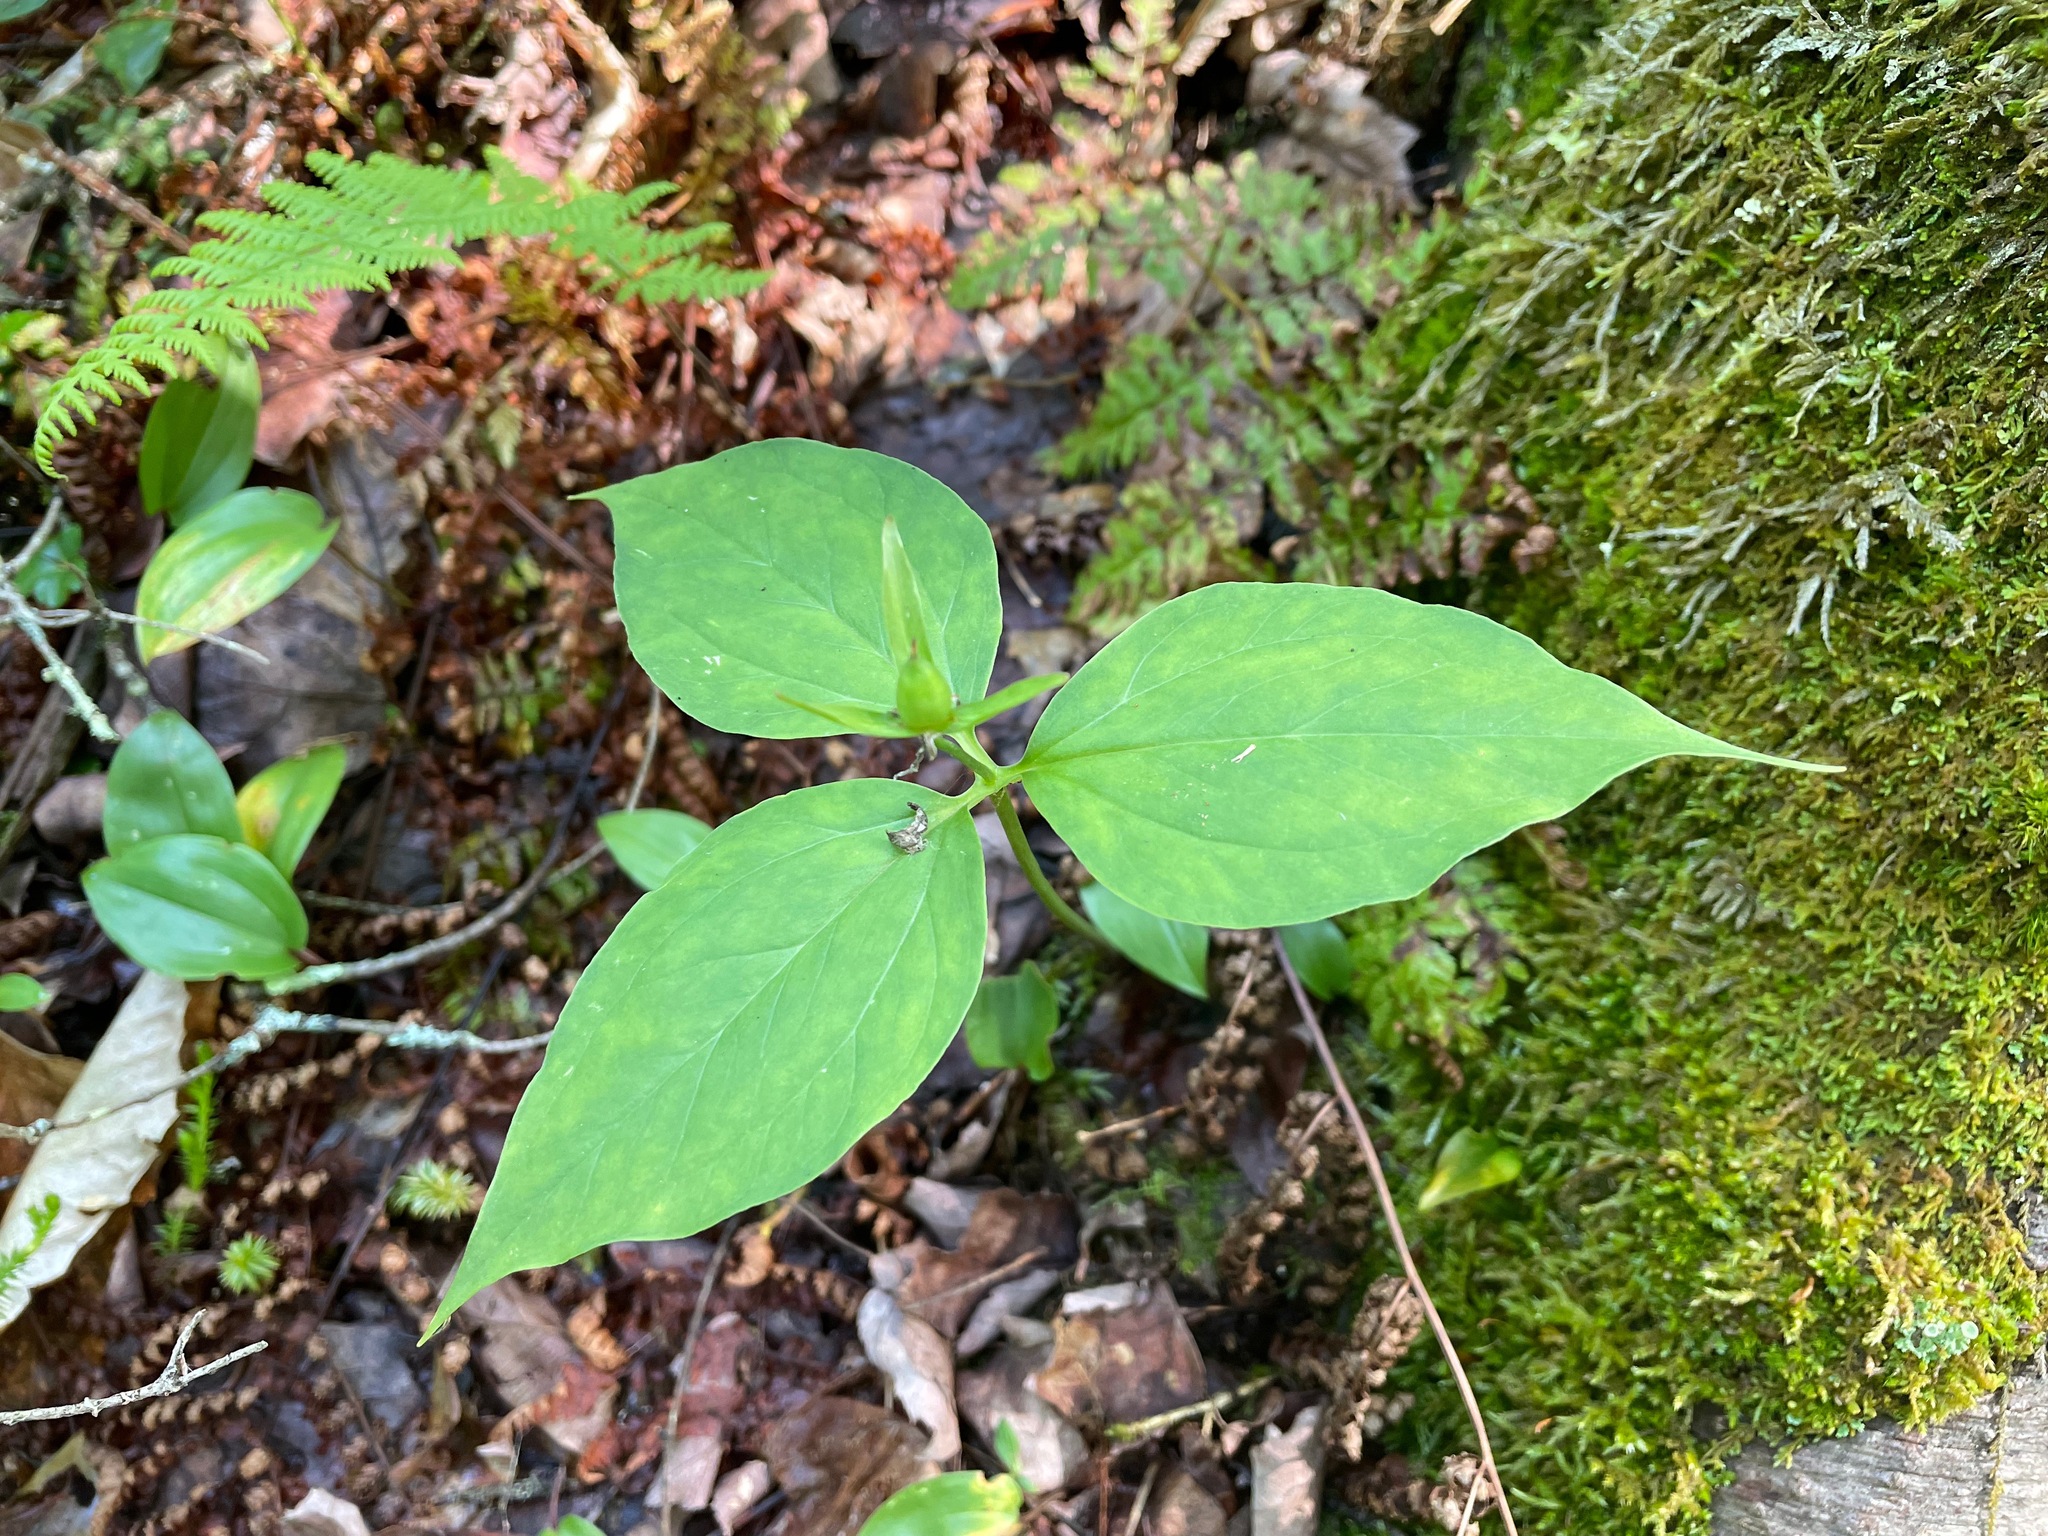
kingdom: Plantae
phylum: Tracheophyta
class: Liliopsida
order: Liliales
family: Melanthiaceae
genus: Trillium
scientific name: Trillium undulatum
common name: Paint trillium
